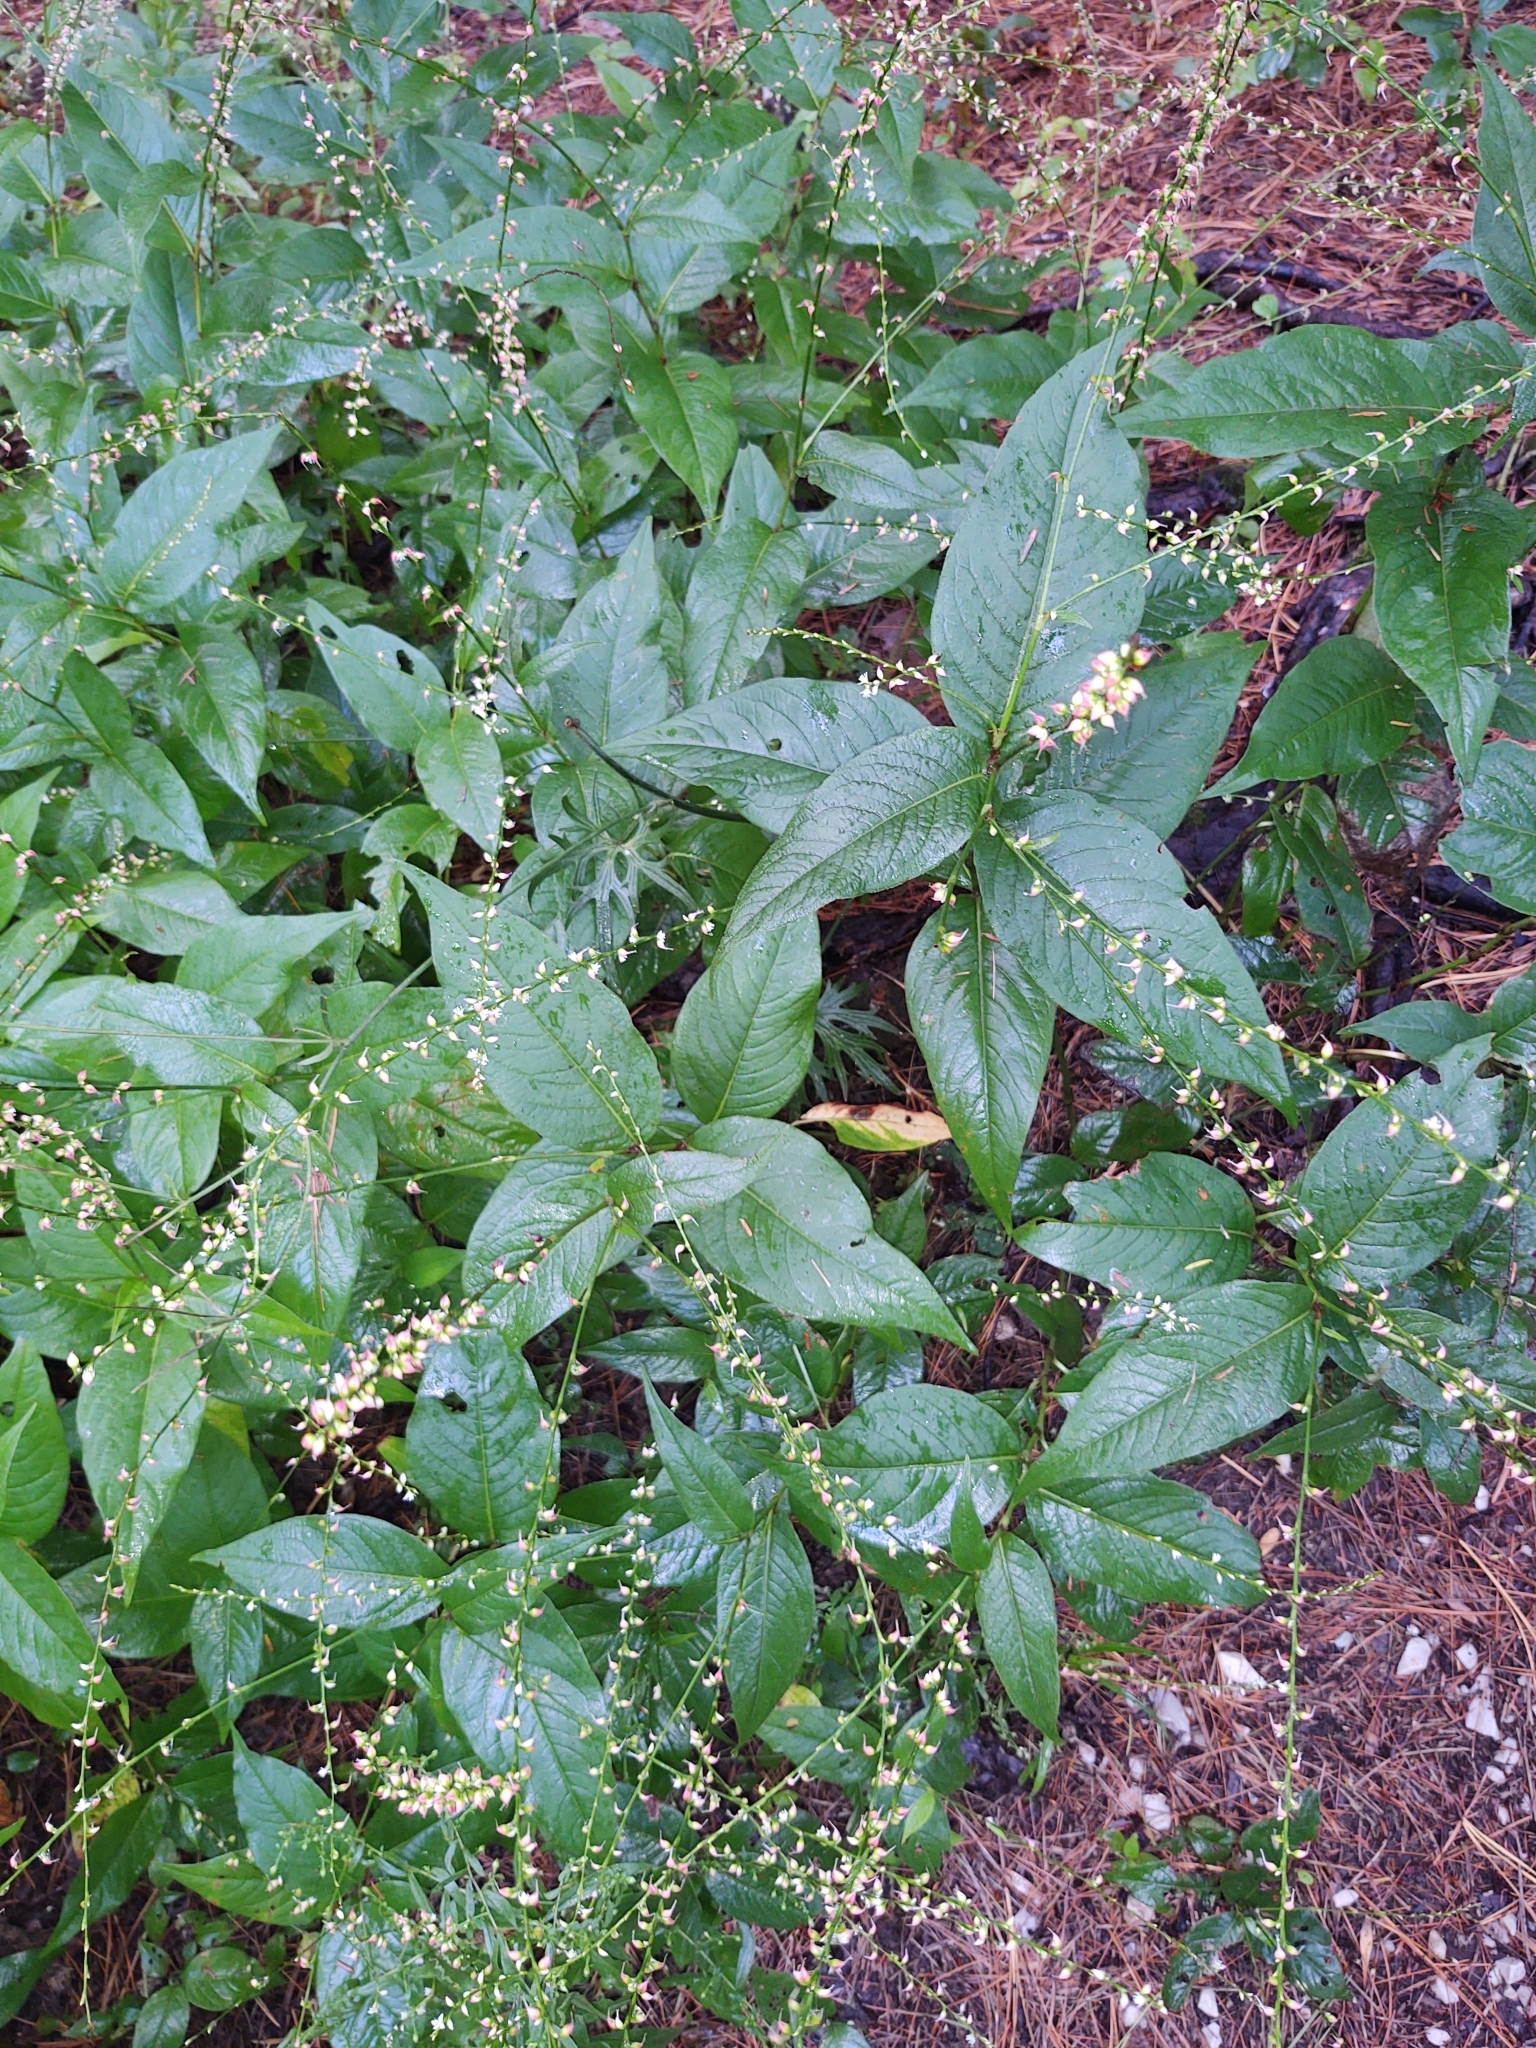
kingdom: Plantae
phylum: Tracheophyta
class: Magnoliopsida
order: Caryophyllales
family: Polygonaceae
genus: Persicaria
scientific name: Persicaria virginiana
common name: Jumpseed
